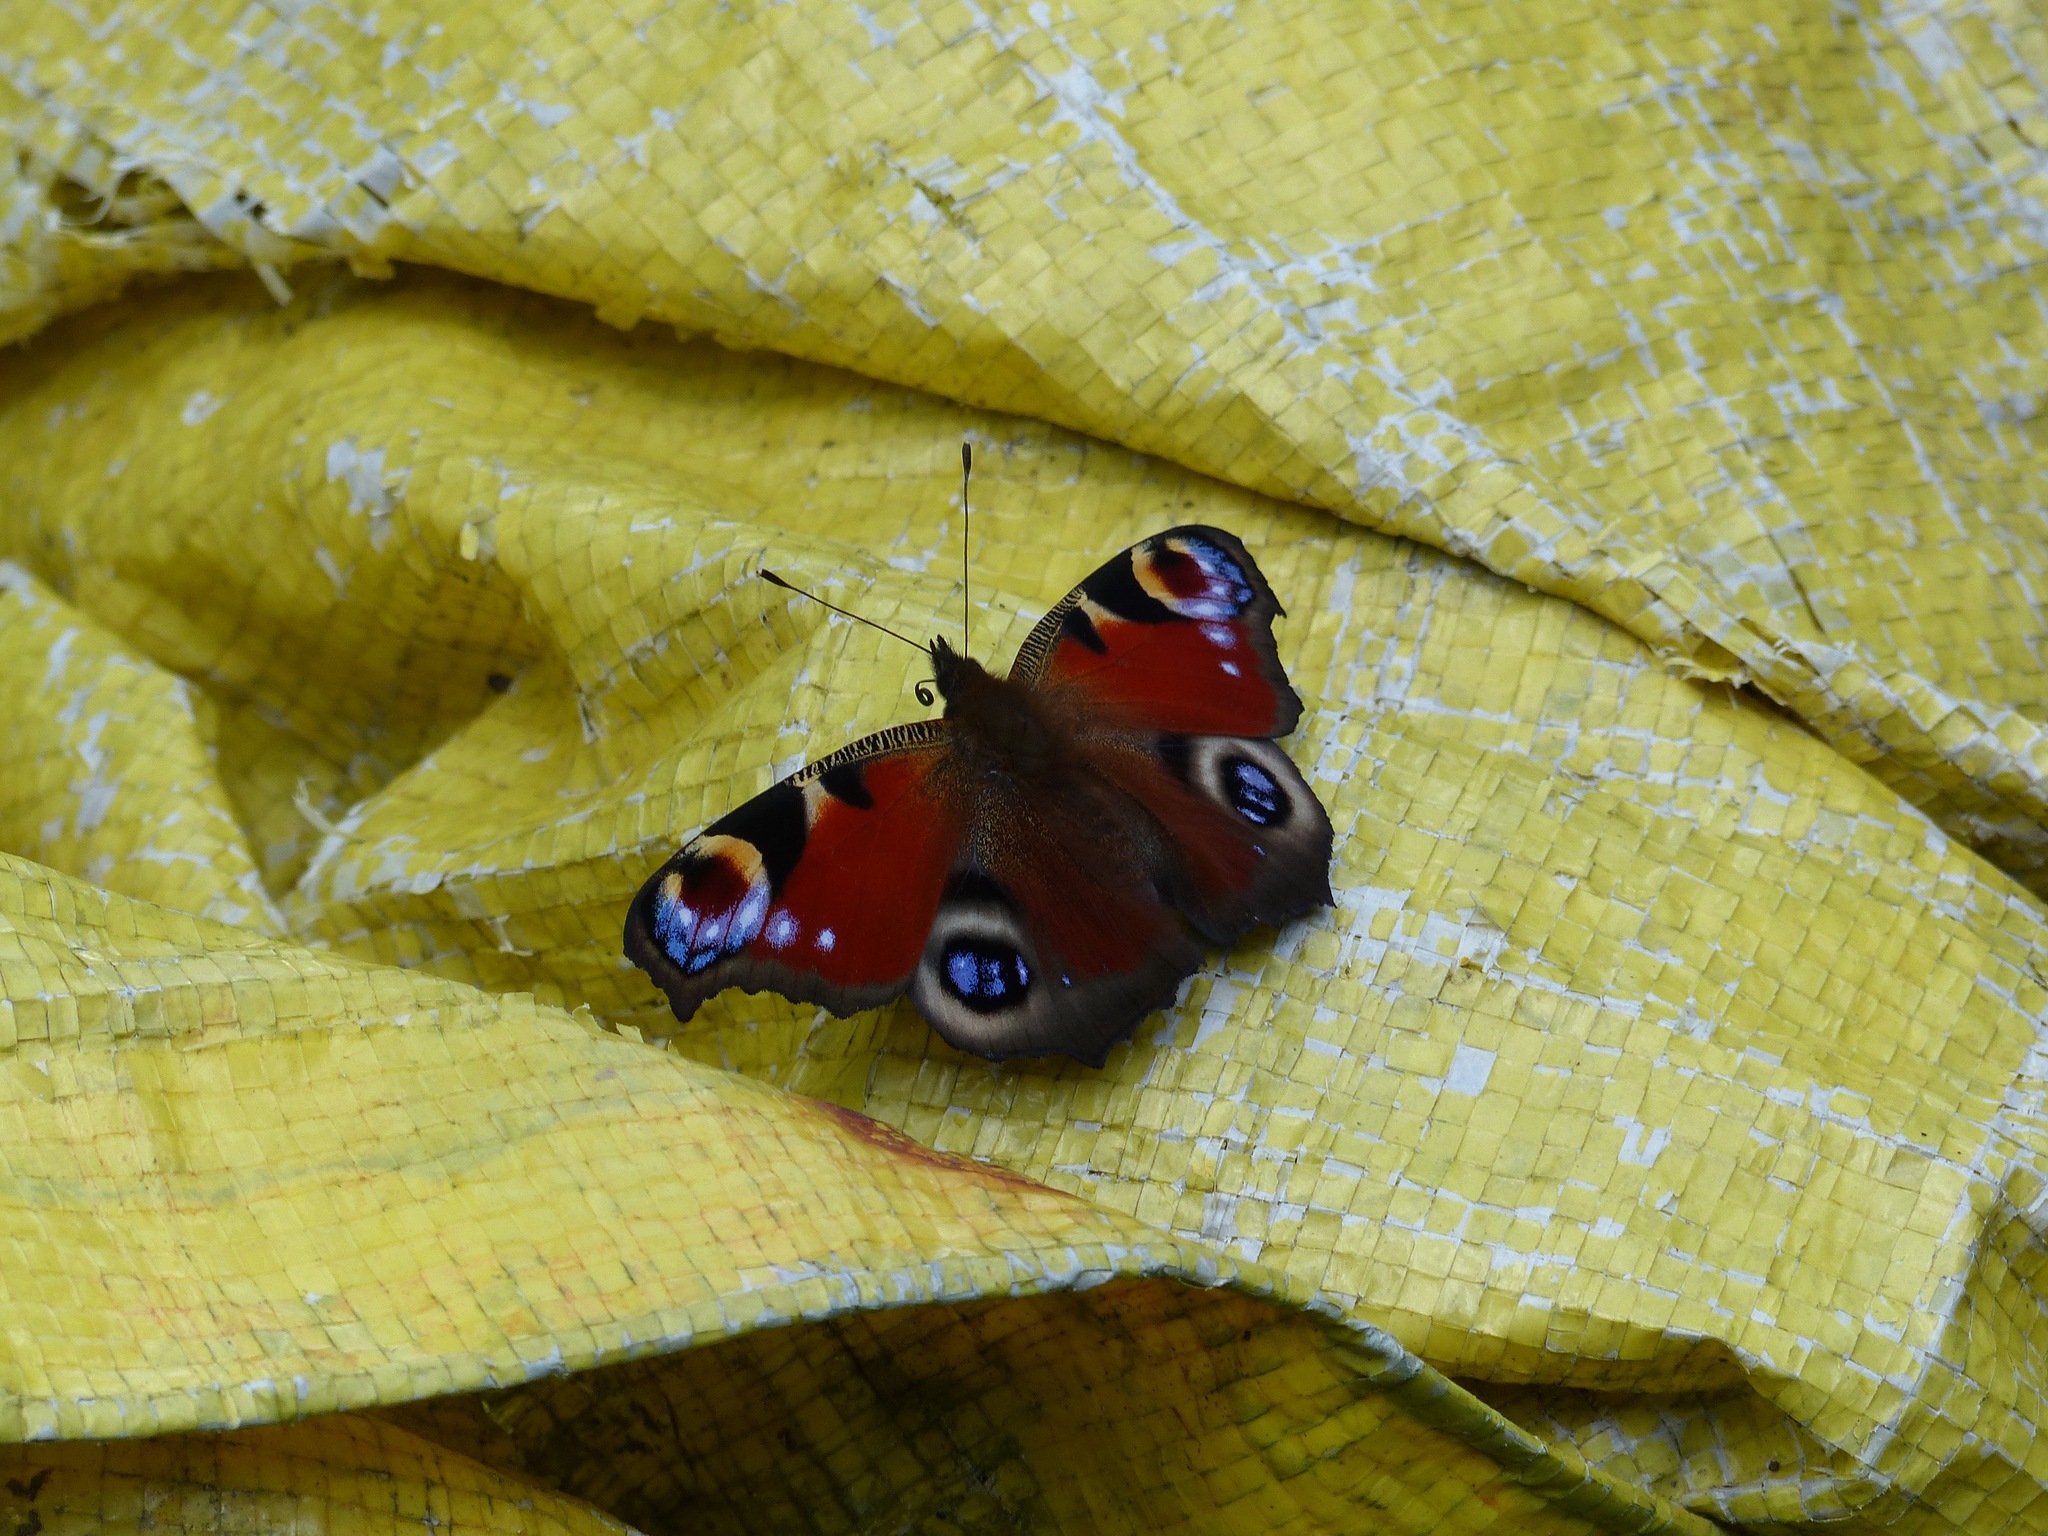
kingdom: Animalia
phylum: Arthropoda
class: Insecta
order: Lepidoptera
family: Nymphalidae
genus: Aglais
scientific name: Aglais io
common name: Peacock
